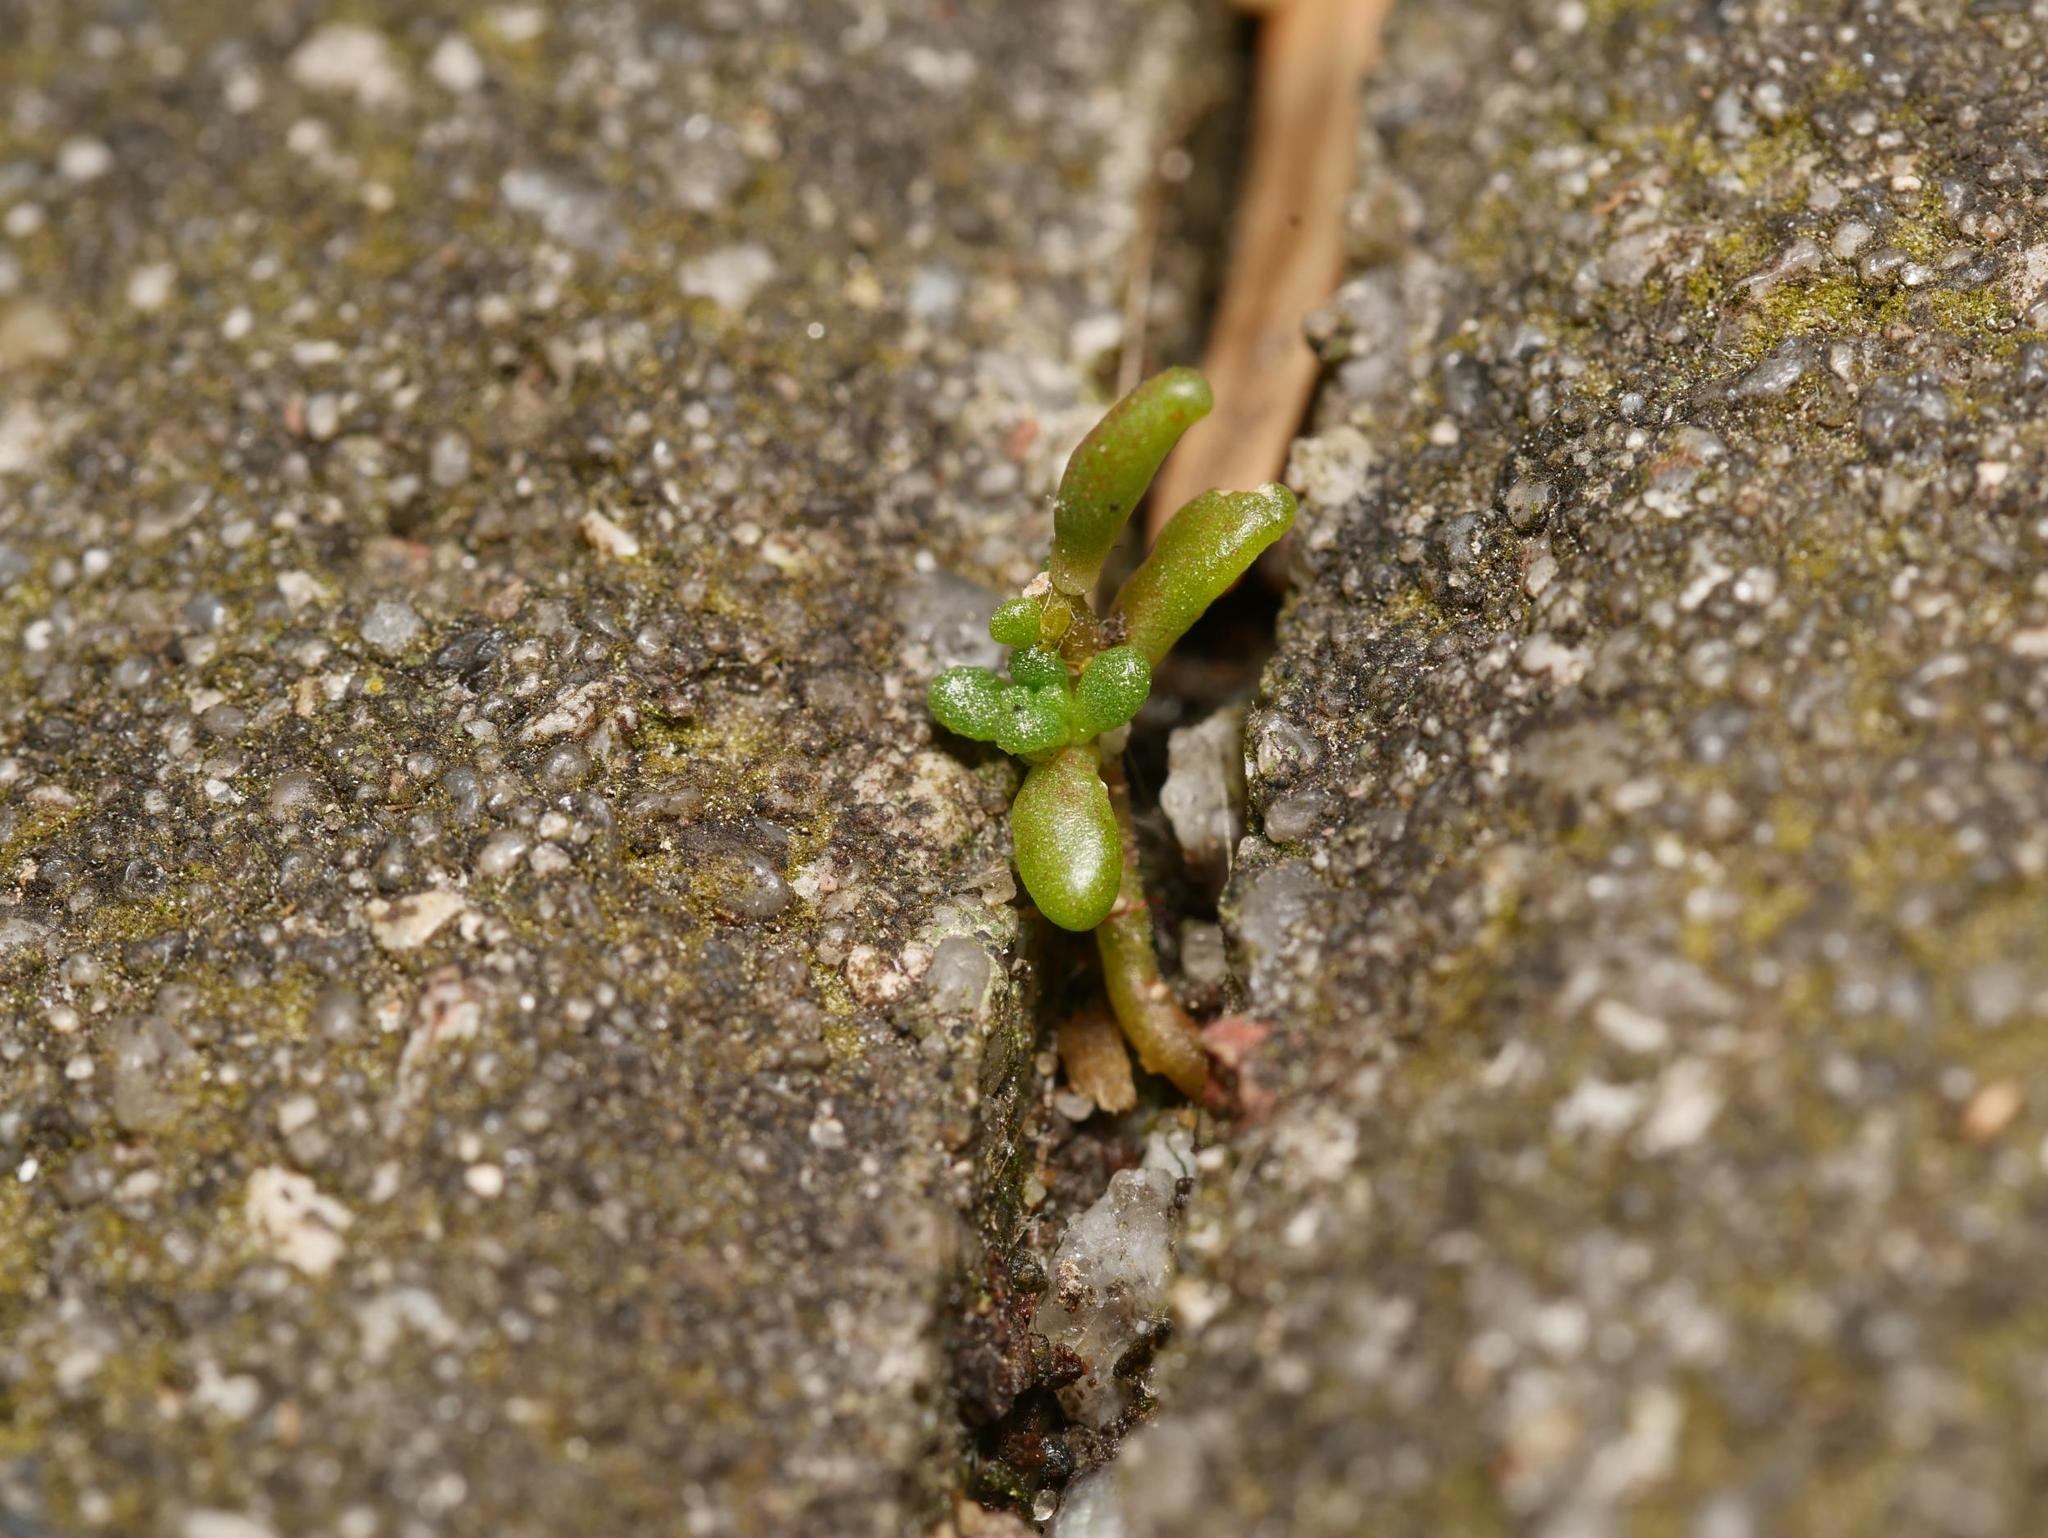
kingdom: Plantae
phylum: Tracheophyta
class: Magnoliopsida
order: Saxifragales
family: Crassulaceae
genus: Sedum
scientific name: Sedum album
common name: White stonecrop
